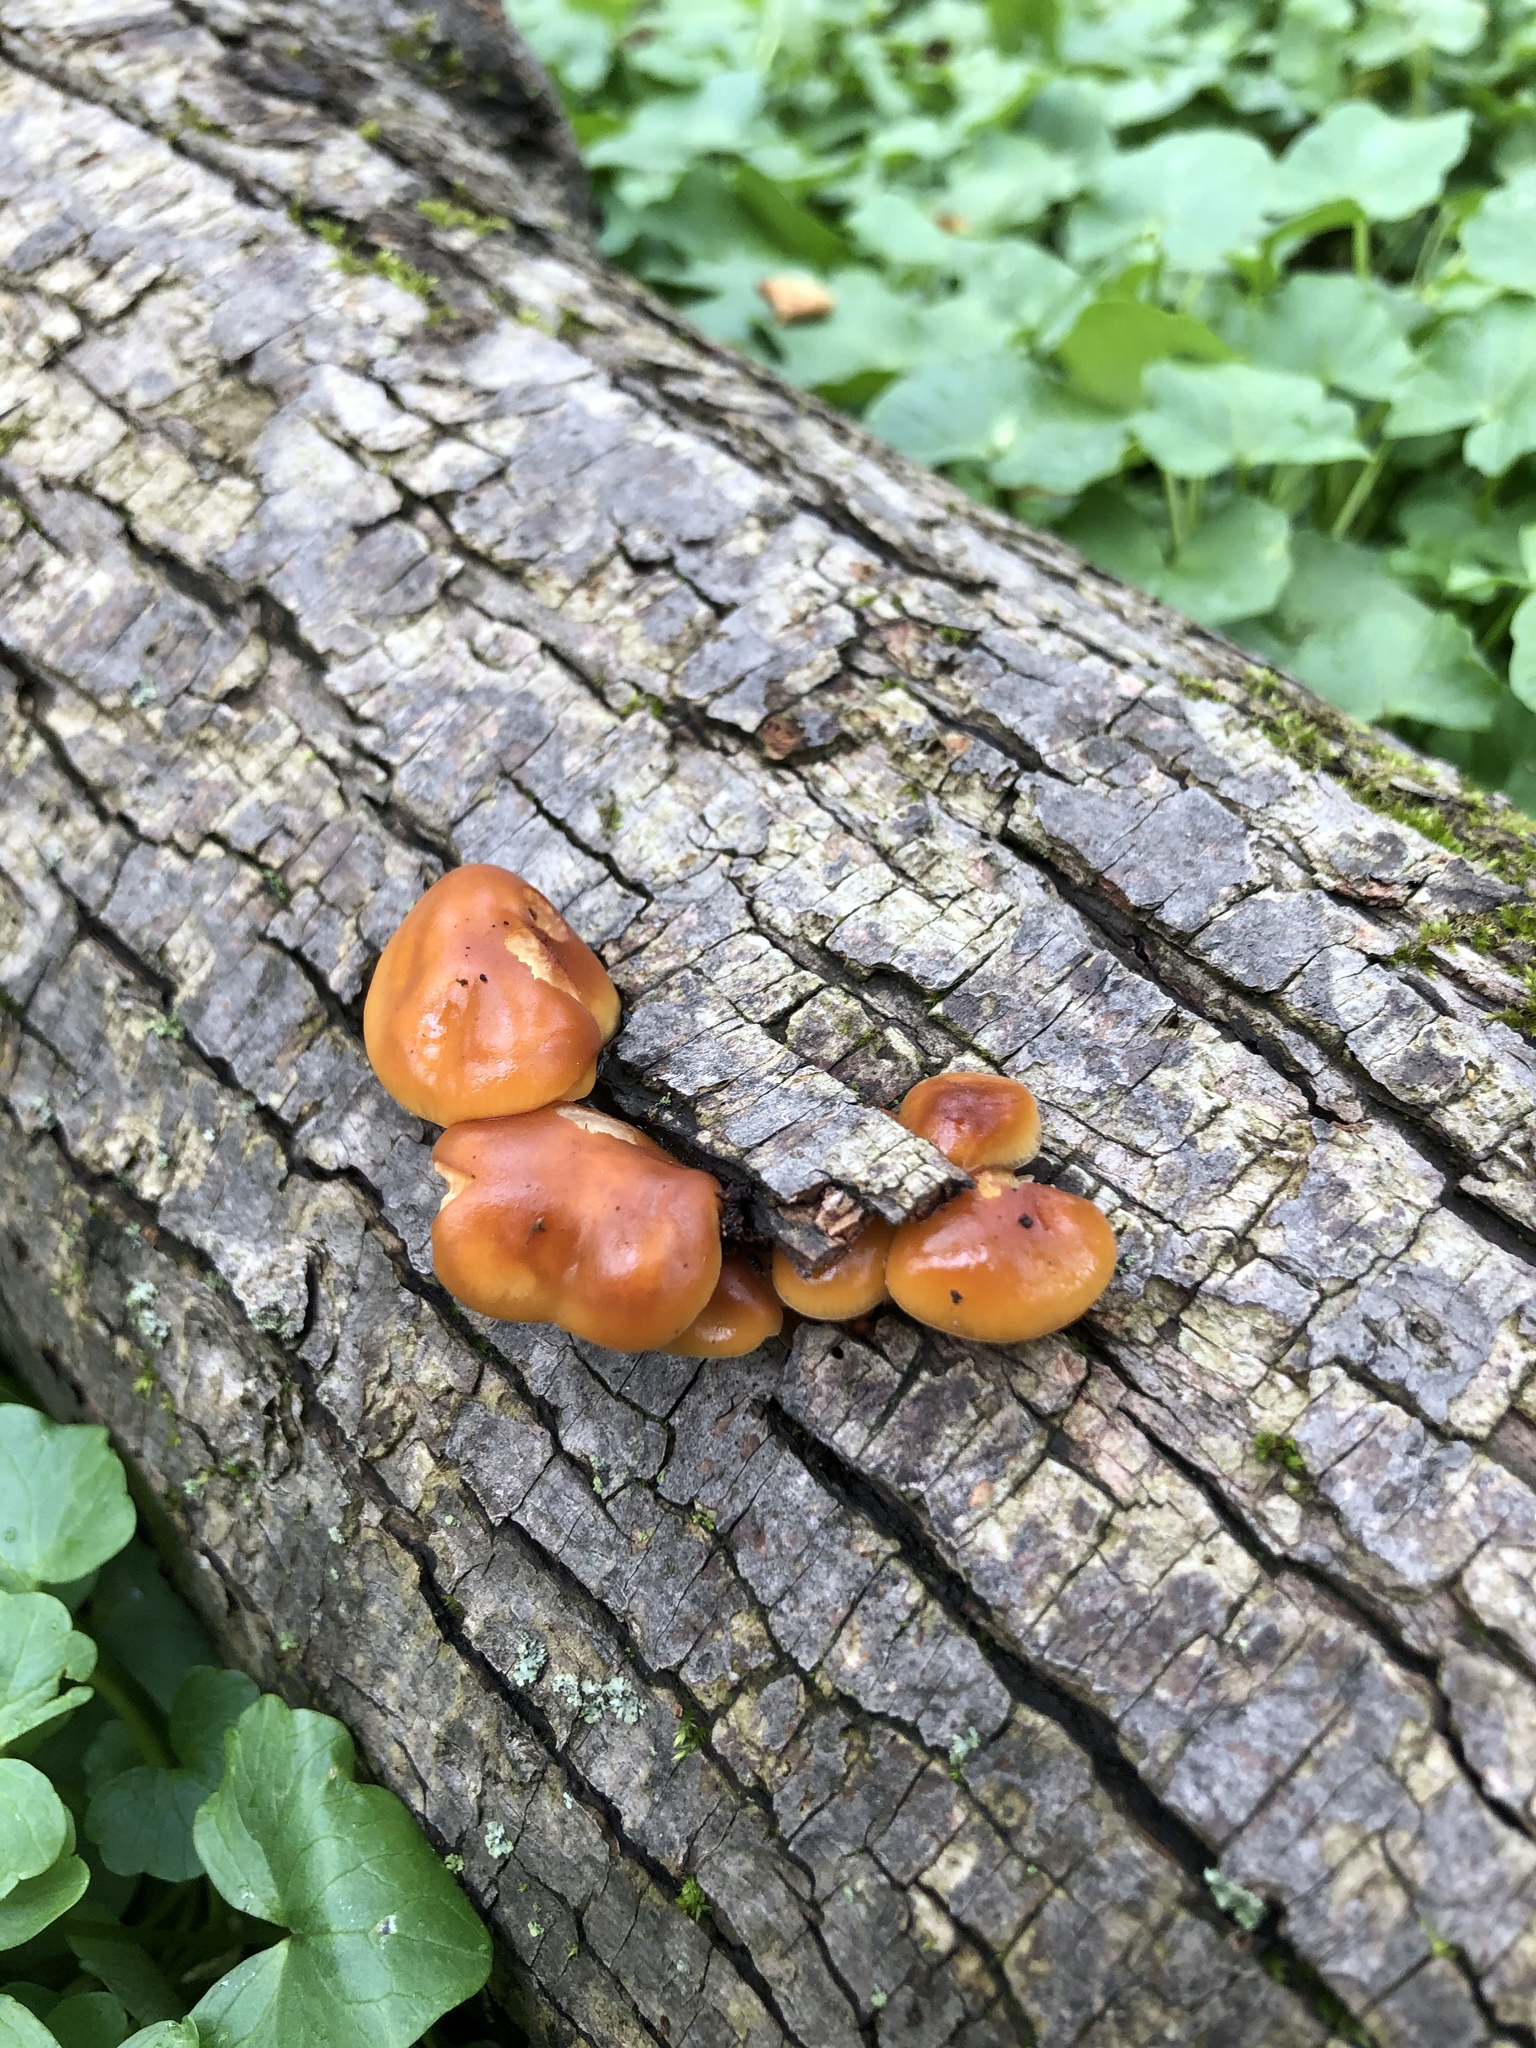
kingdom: Fungi
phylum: Basidiomycota
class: Agaricomycetes
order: Agaricales
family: Physalacriaceae
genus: Flammulina
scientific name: Flammulina velutipes
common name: Velvet shank
